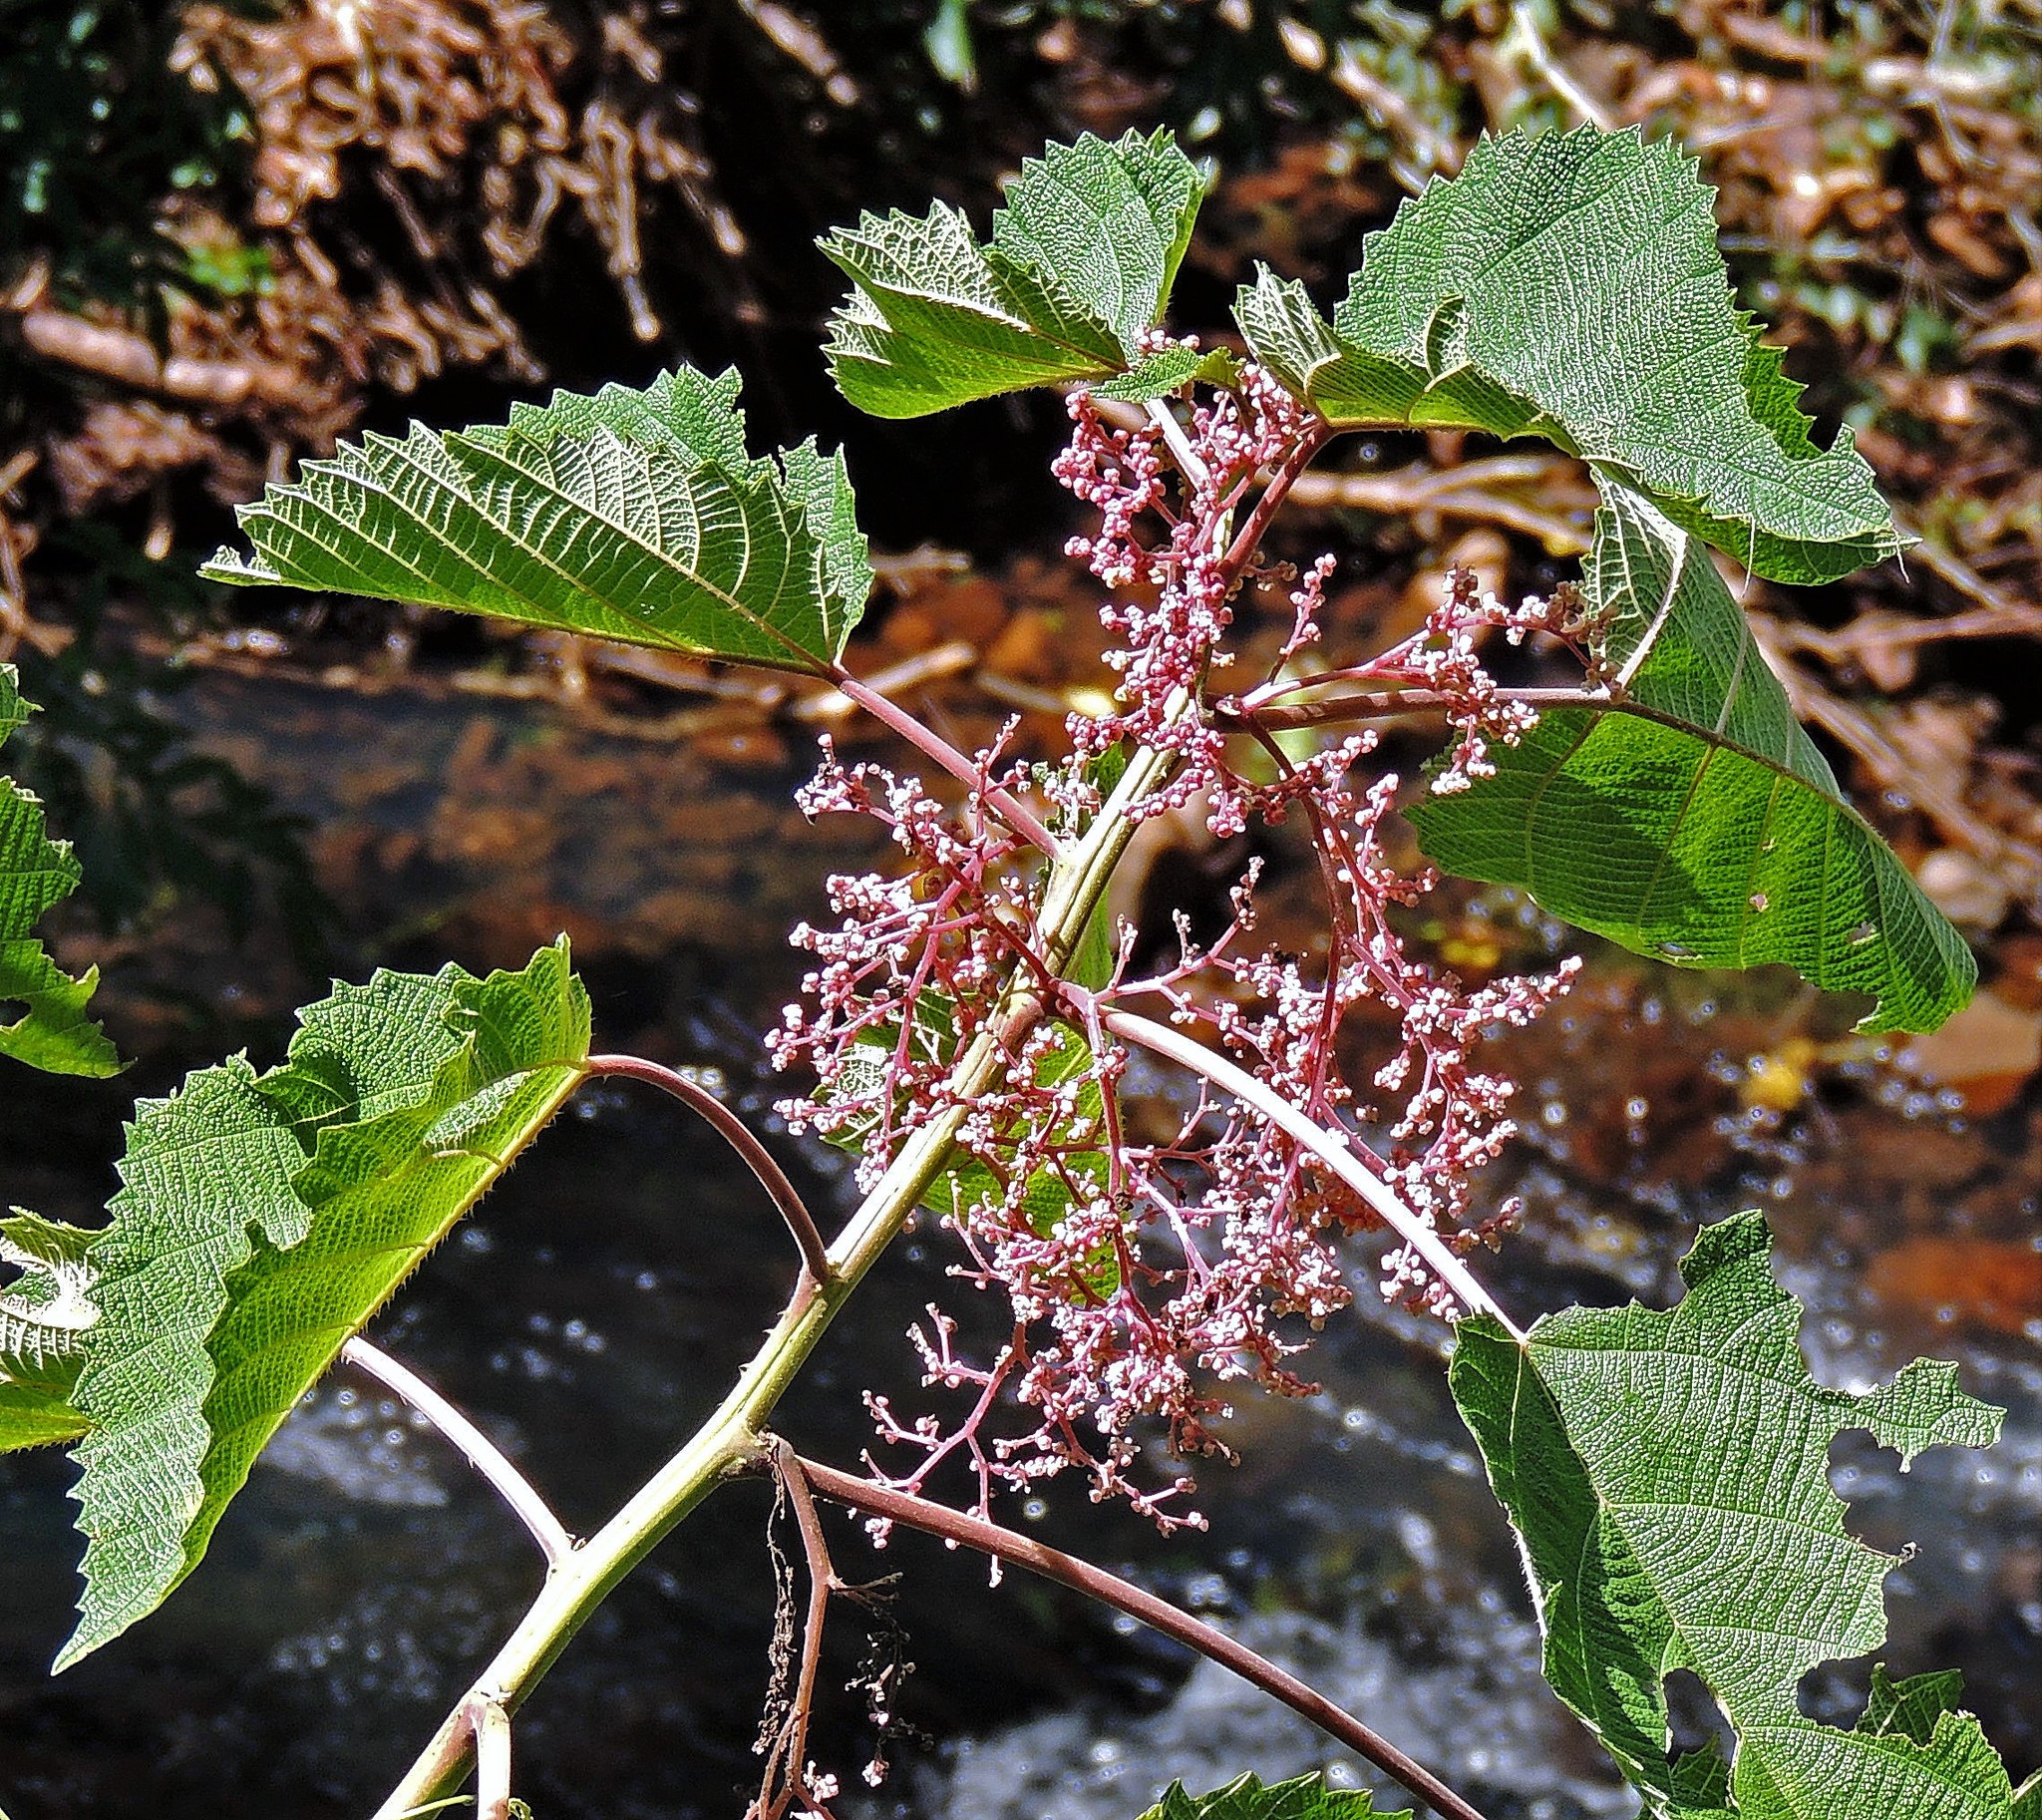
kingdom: Plantae
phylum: Tracheophyta
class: Magnoliopsida
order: Rosales
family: Urticaceae
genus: Urera
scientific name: Urera baccifera
